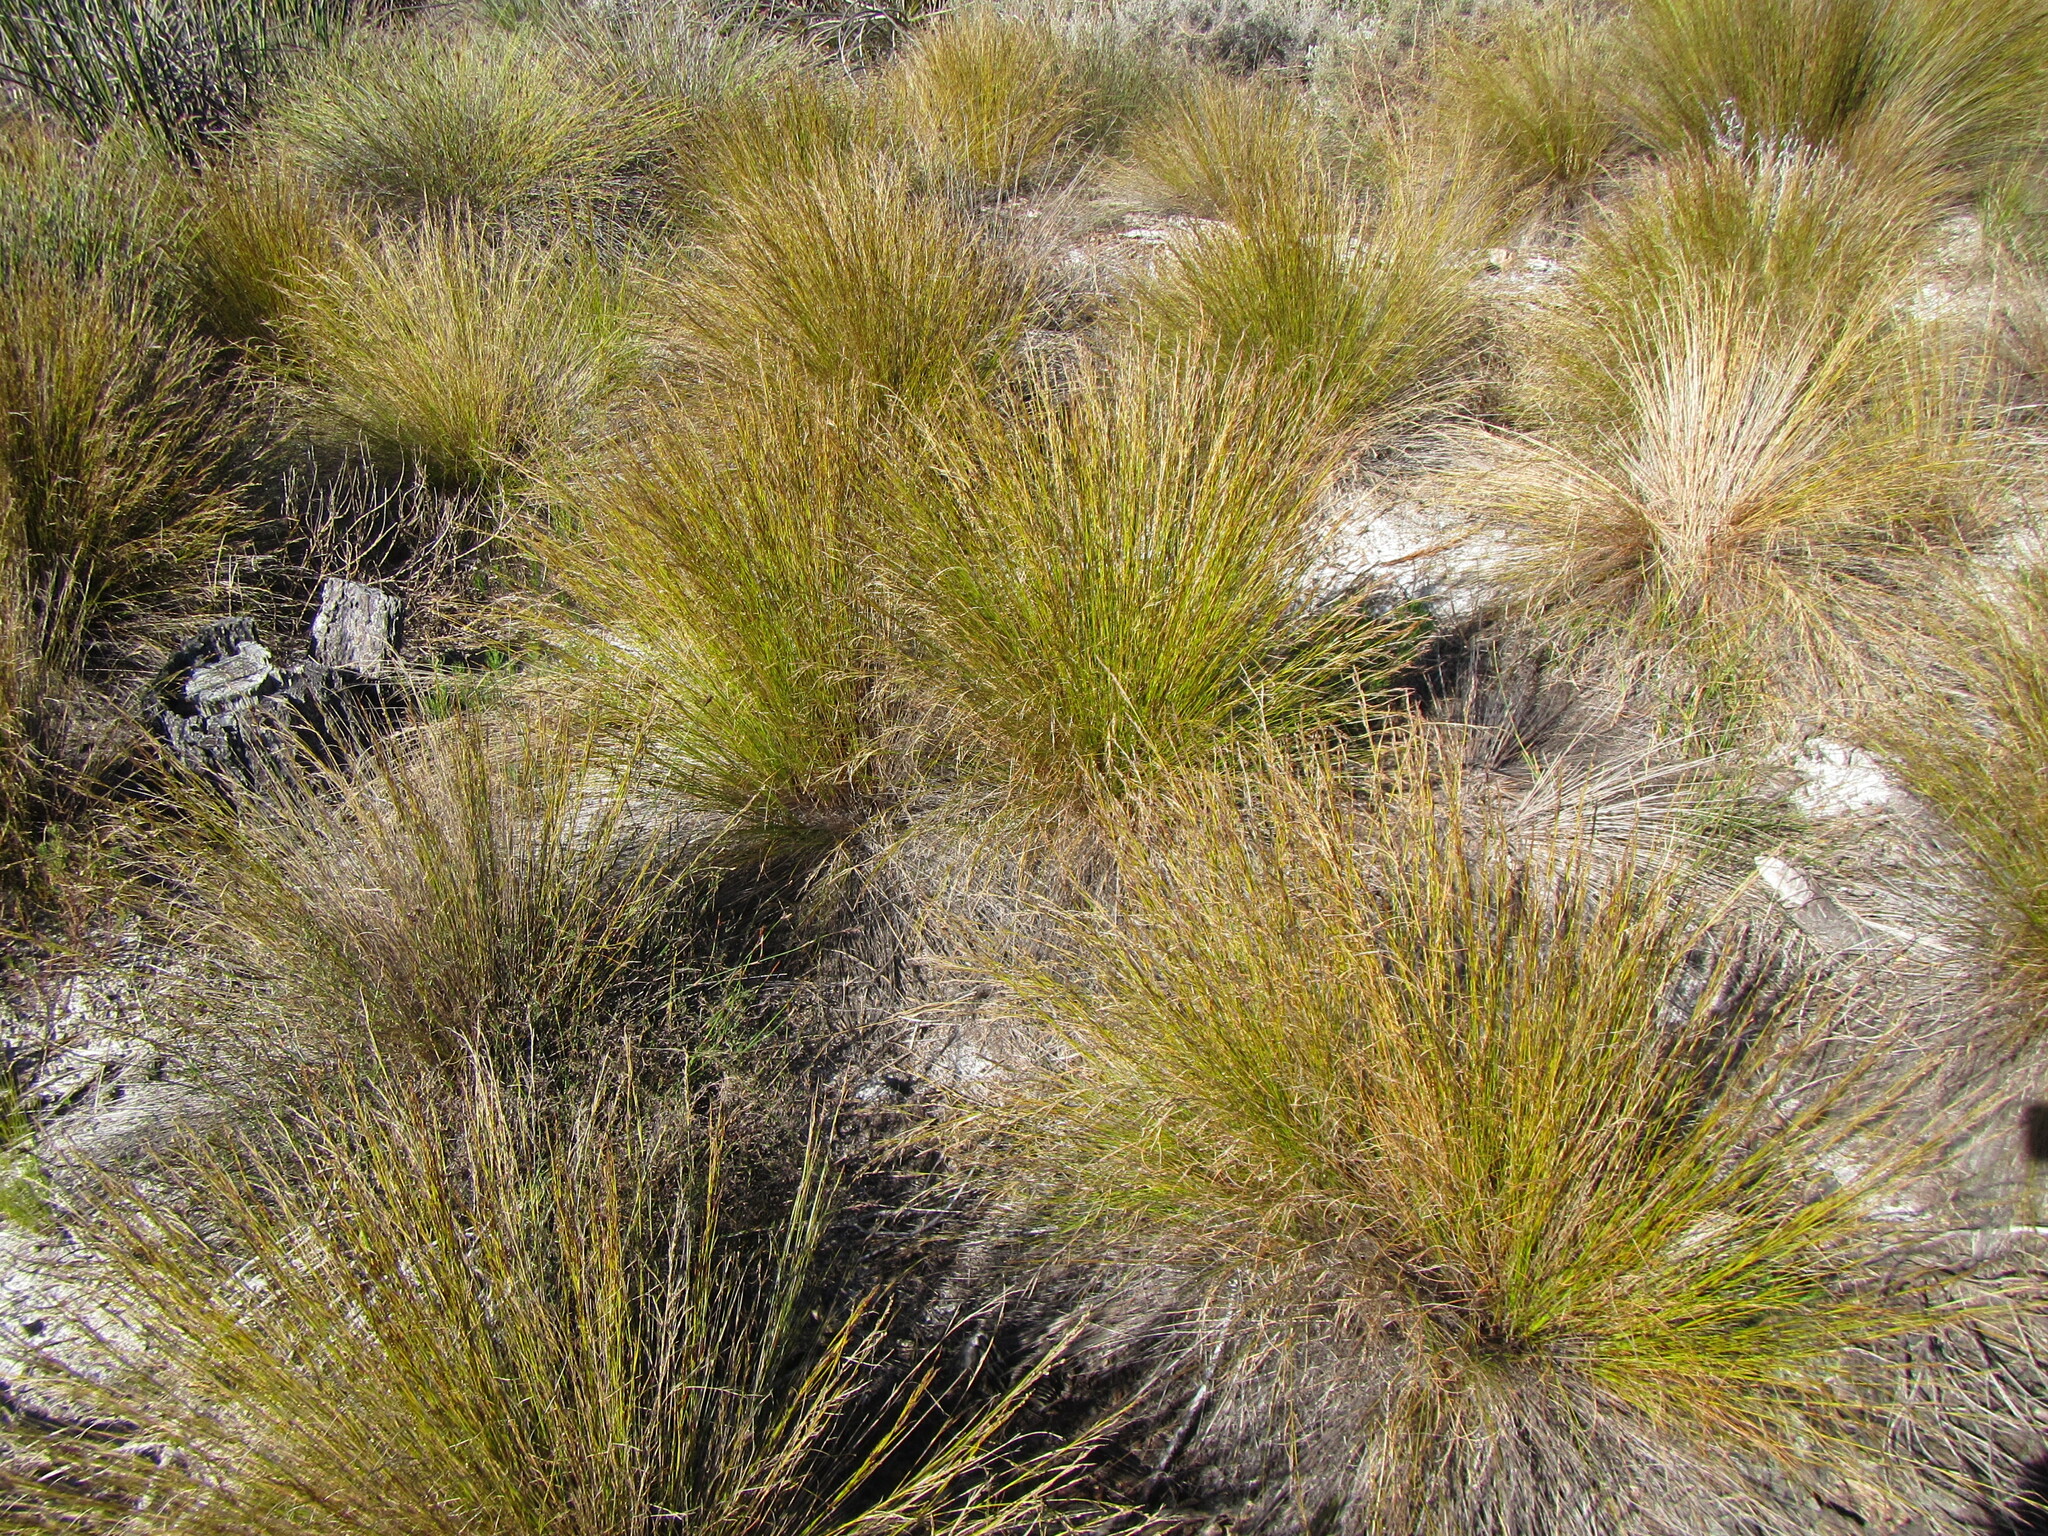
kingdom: Plantae
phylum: Tracheophyta
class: Liliopsida
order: Poales
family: Cyperaceae
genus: Tetraria
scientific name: Tetraria fasciata
